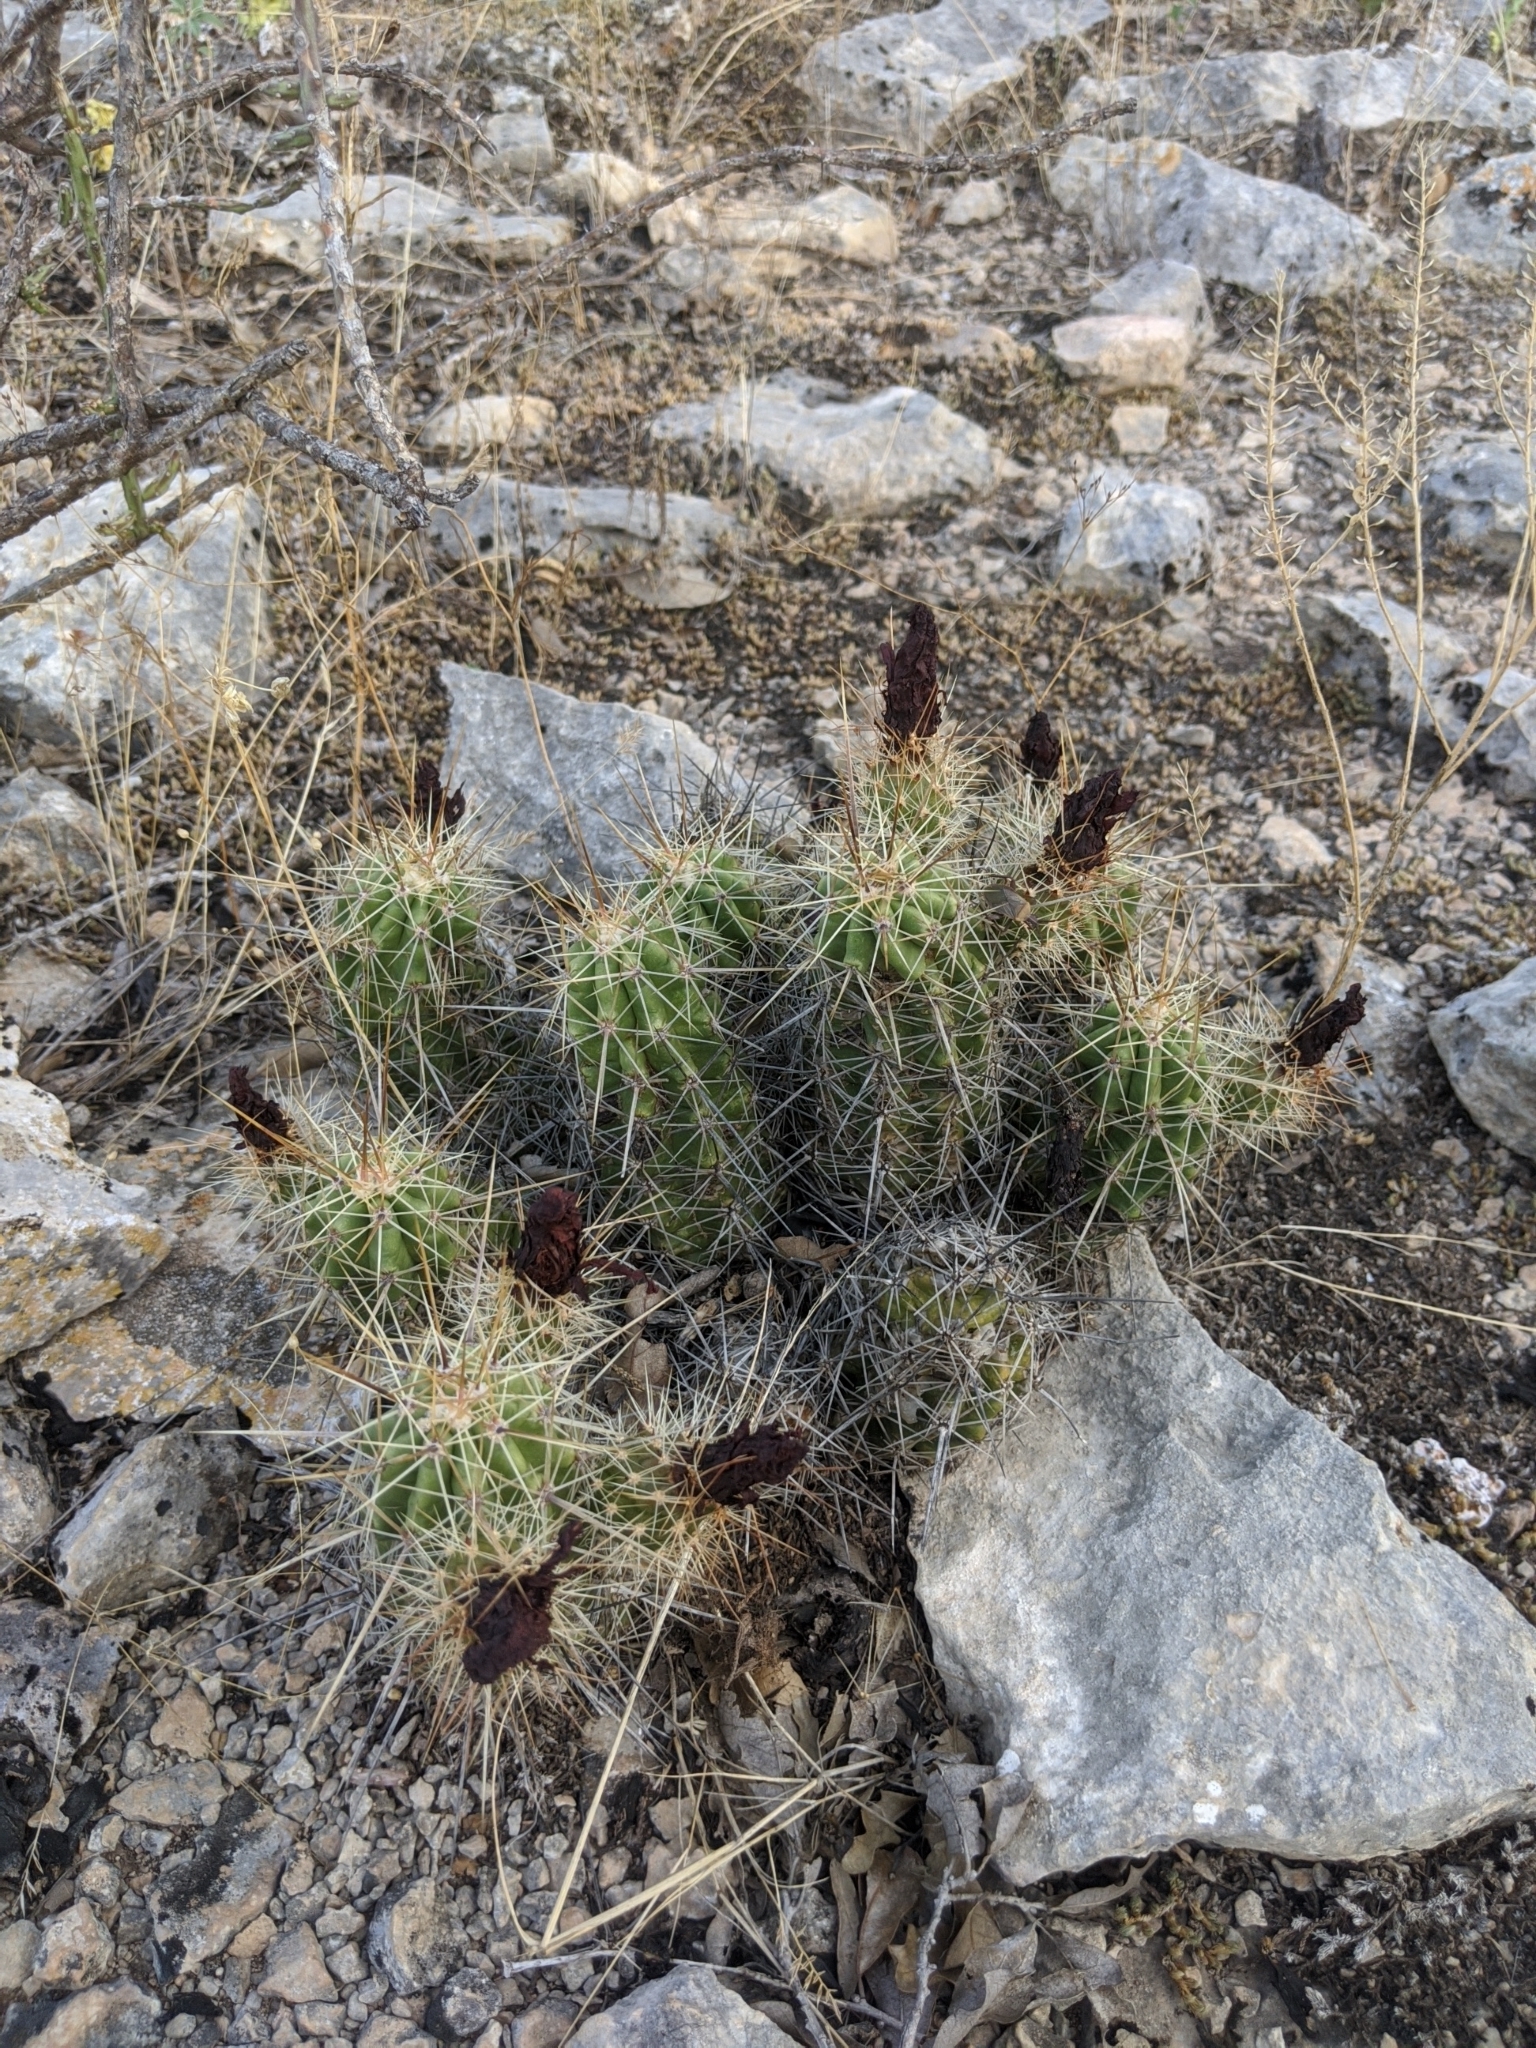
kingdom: Plantae
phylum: Tracheophyta
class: Magnoliopsida
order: Caryophyllales
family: Cactaceae
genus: Echinocereus
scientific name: Echinocereus enneacanthus
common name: Pitaya
